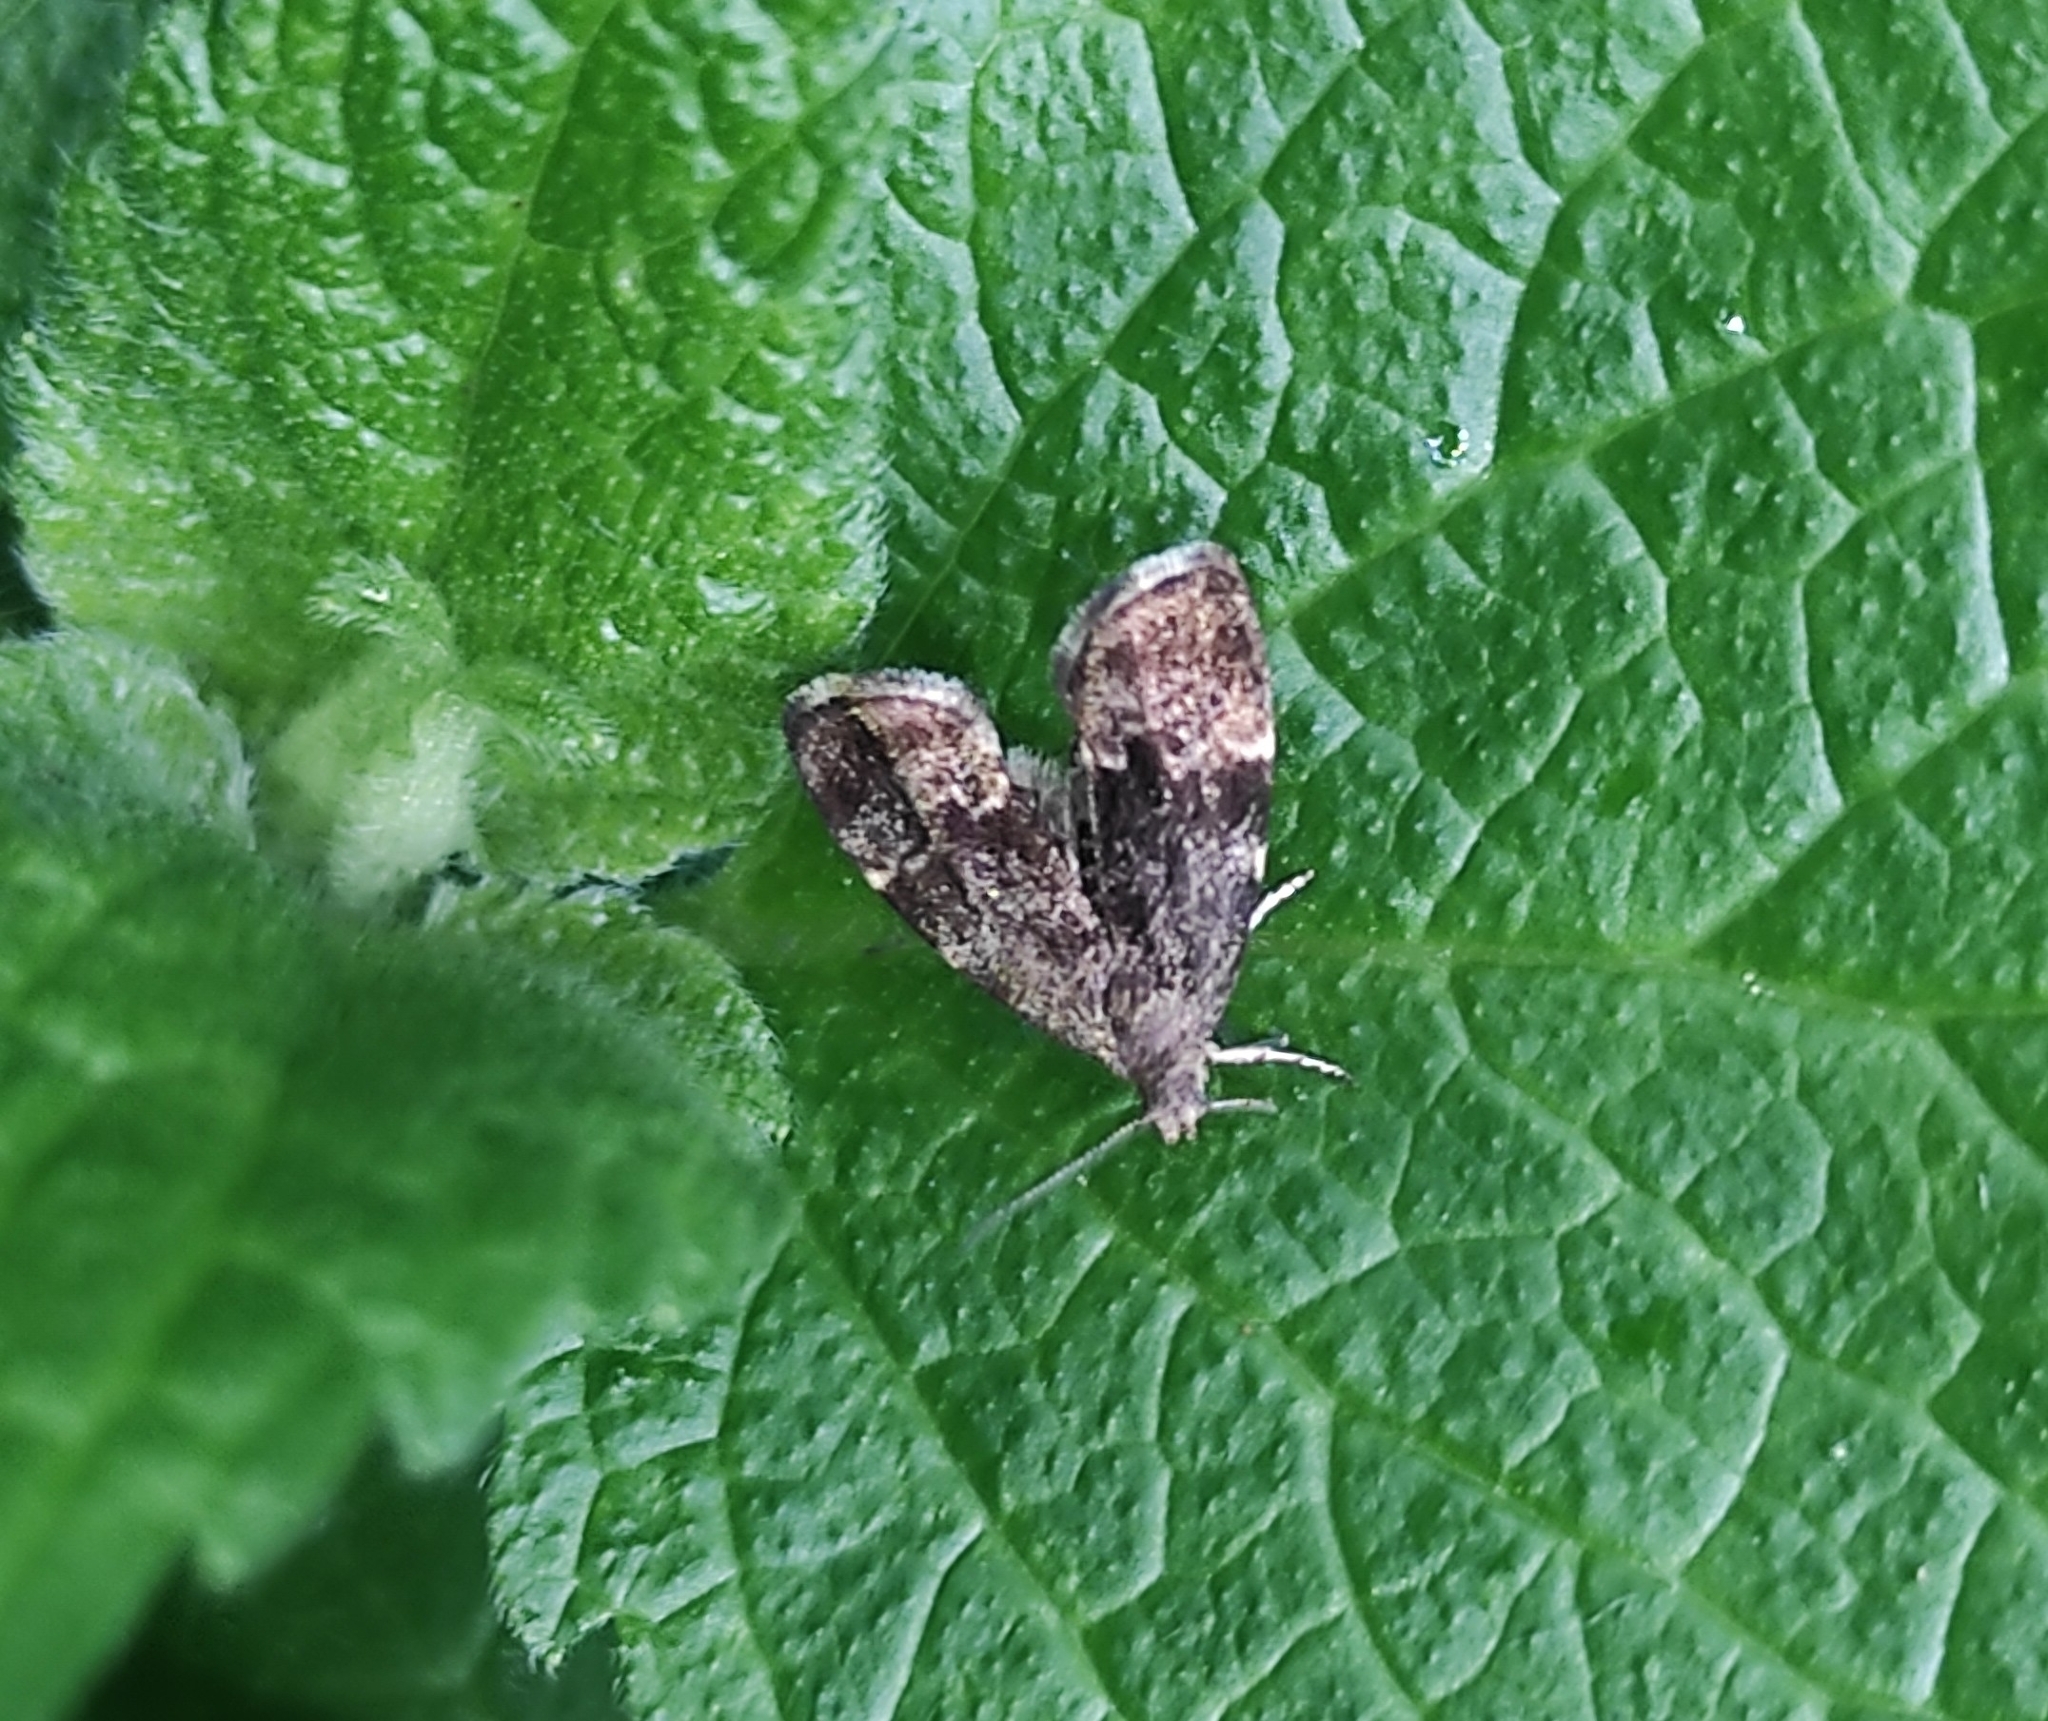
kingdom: Animalia
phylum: Arthropoda
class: Insecta
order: Lepidoptera
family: Choreutidae
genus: Anthophila
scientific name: Anthophila fabriciana
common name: Nettle-tap
